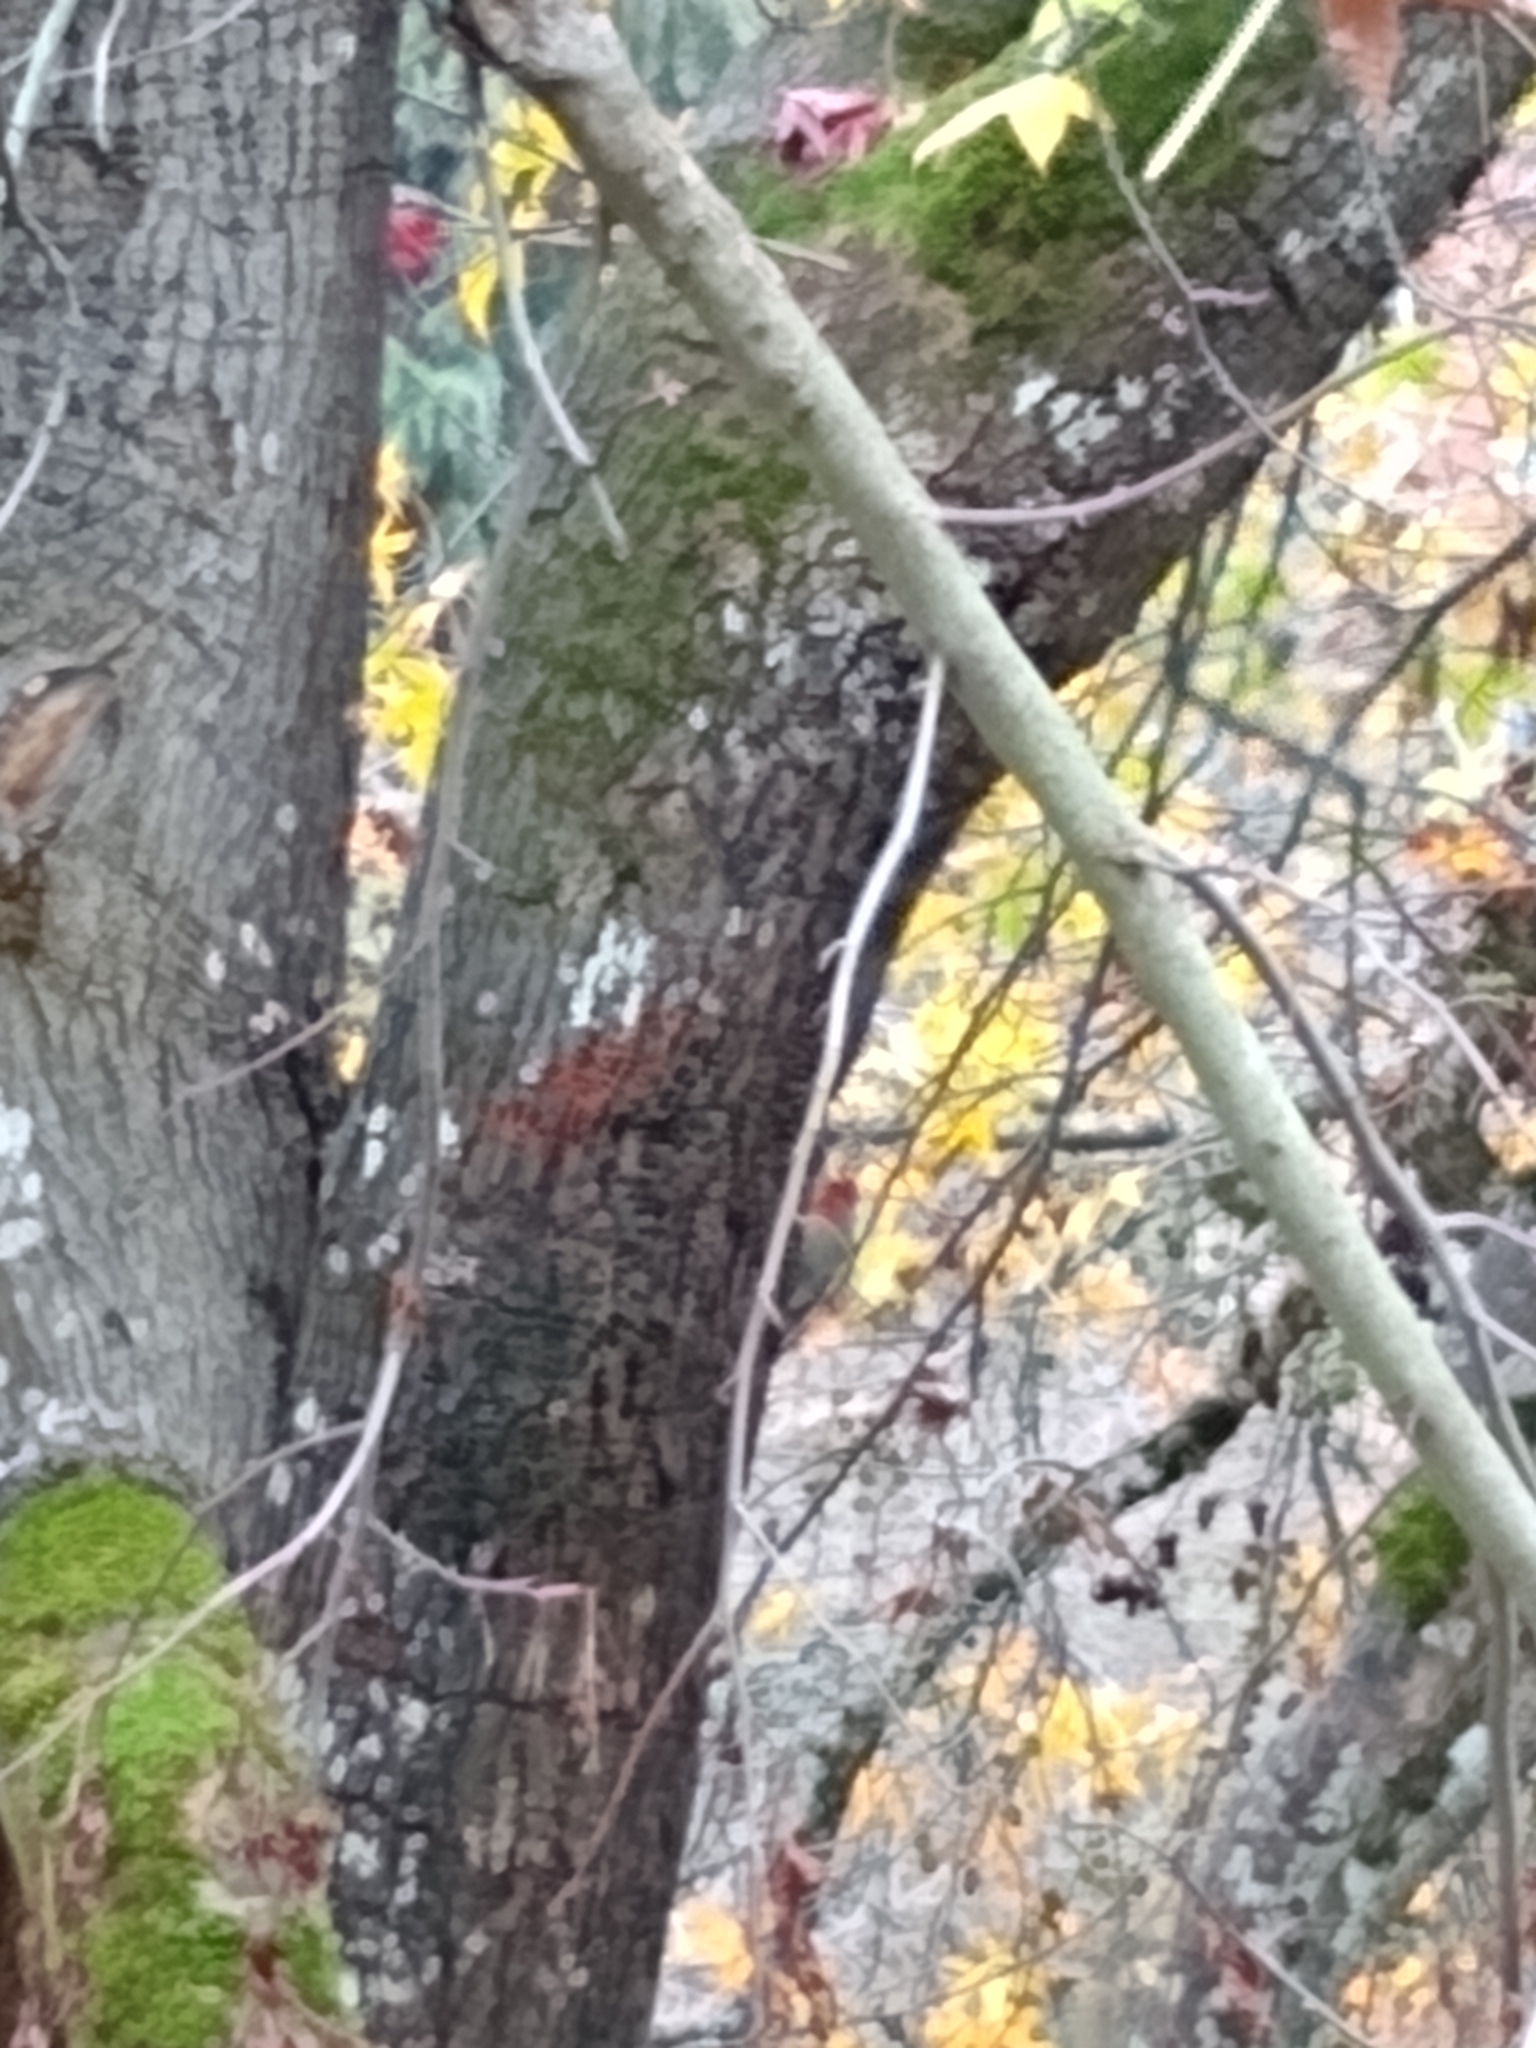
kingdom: Animalia
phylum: Chordata
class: Aves
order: Piciformes
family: Picidae
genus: Sphyrapicus
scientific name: Sphyrapicus ruber
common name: Red-breasted sapsucker
